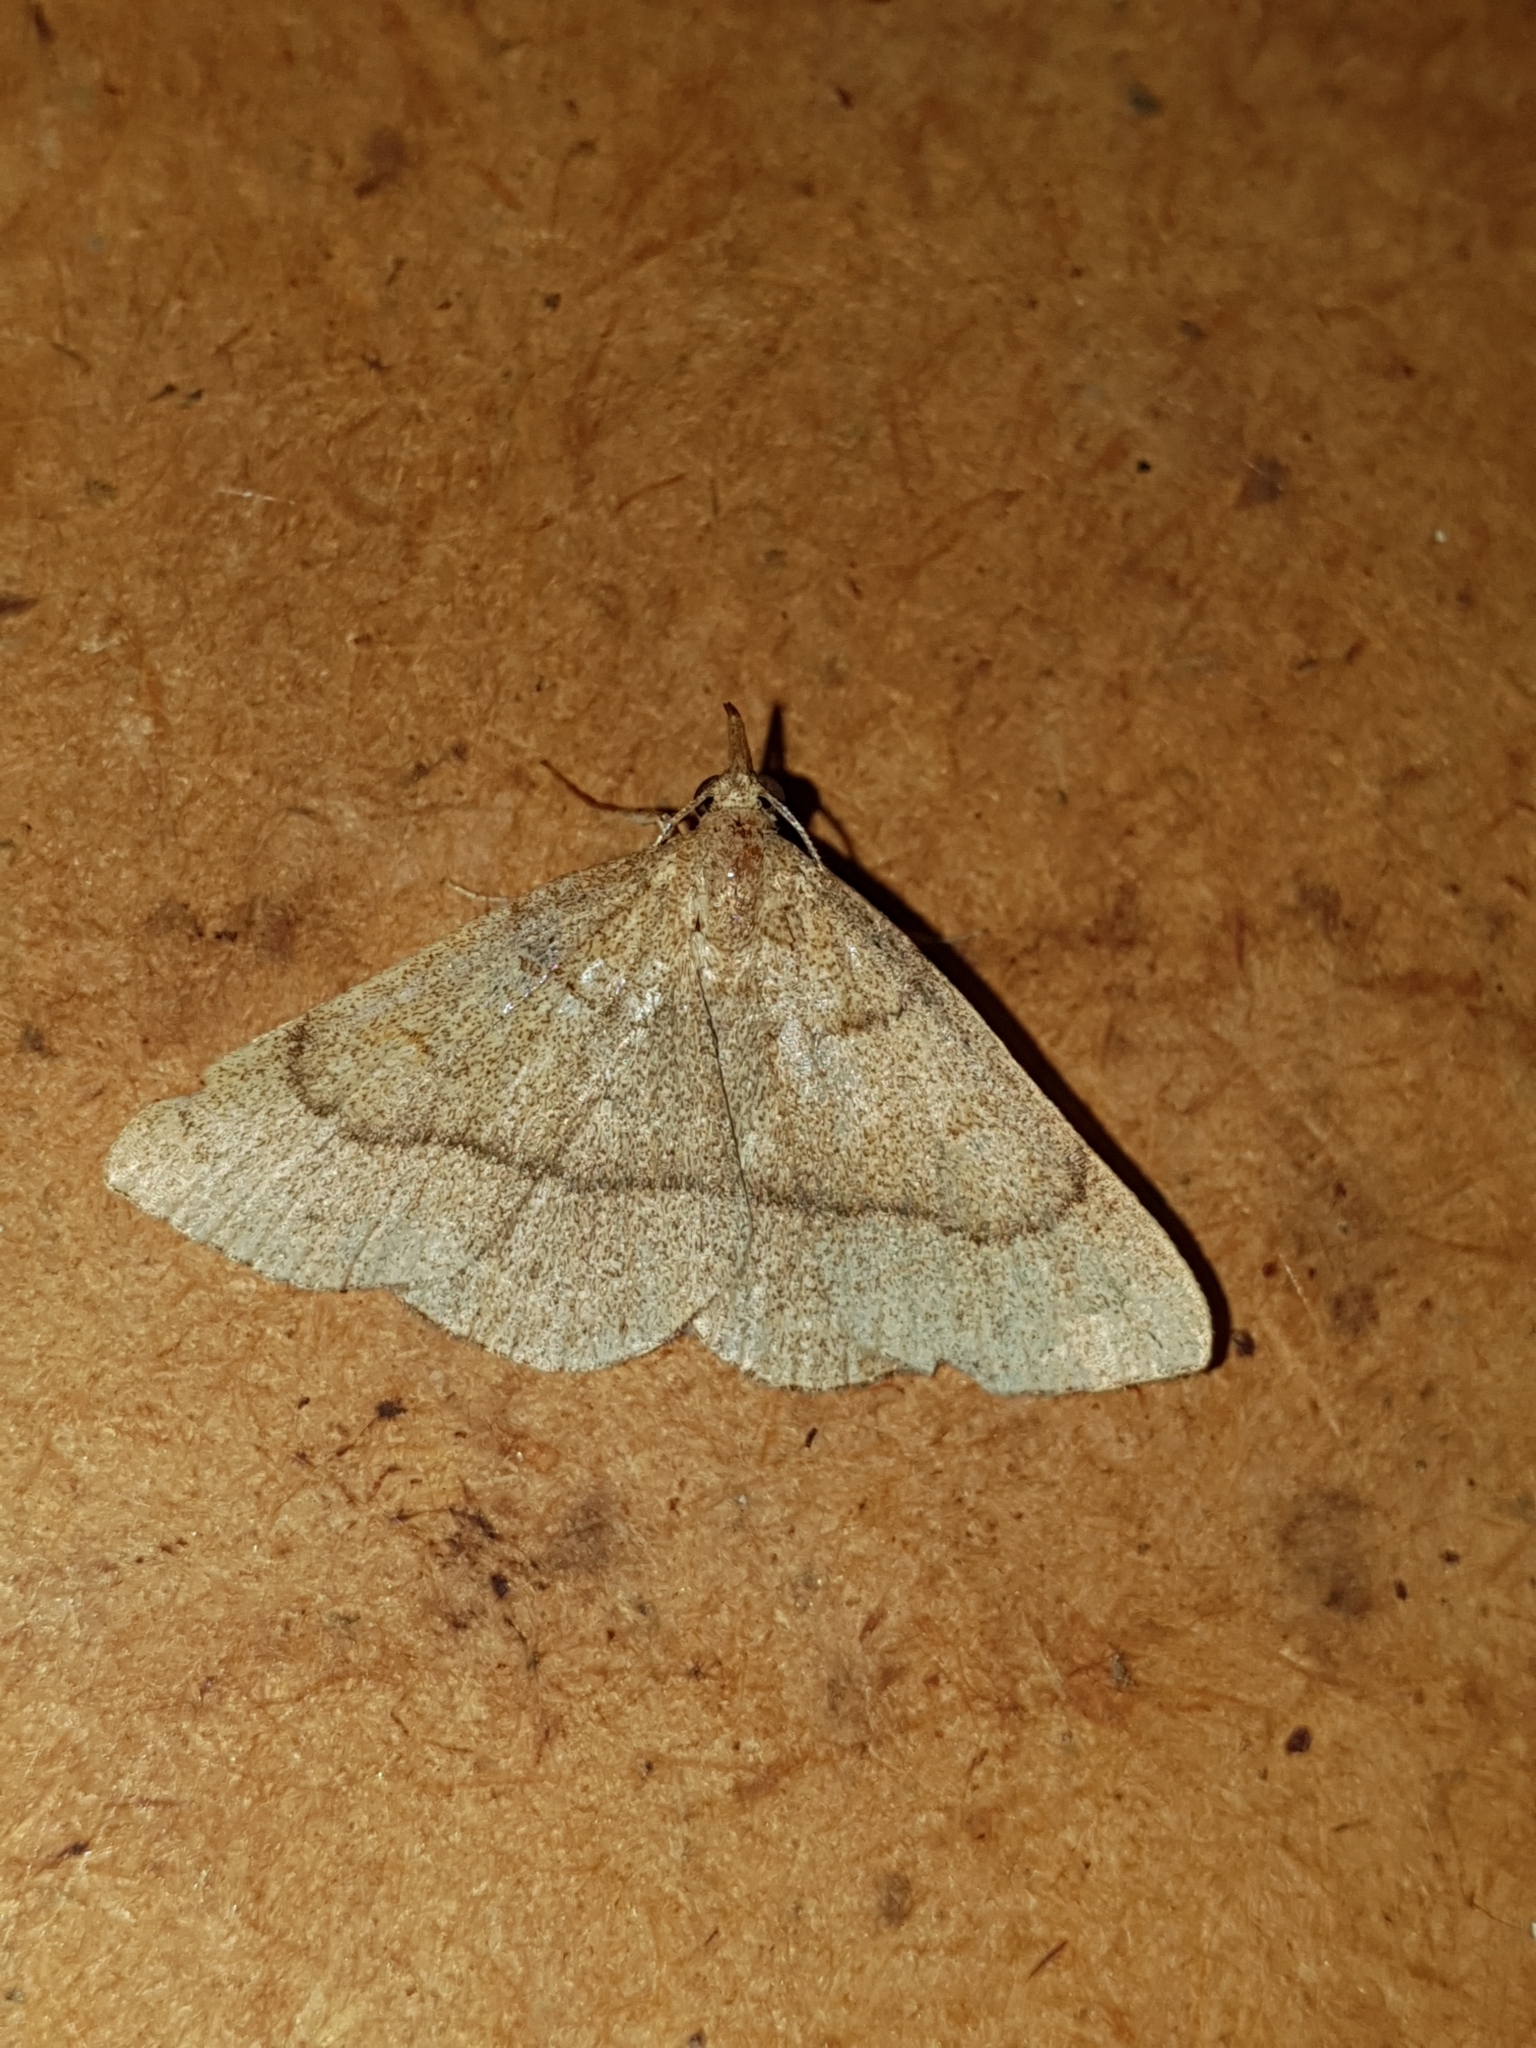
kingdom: Animalia
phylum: Arthropoda
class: Insecta
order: Lepidoptera
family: Erebidae
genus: Paracolax
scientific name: Paracolax tristalis
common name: Clay fan-foot
